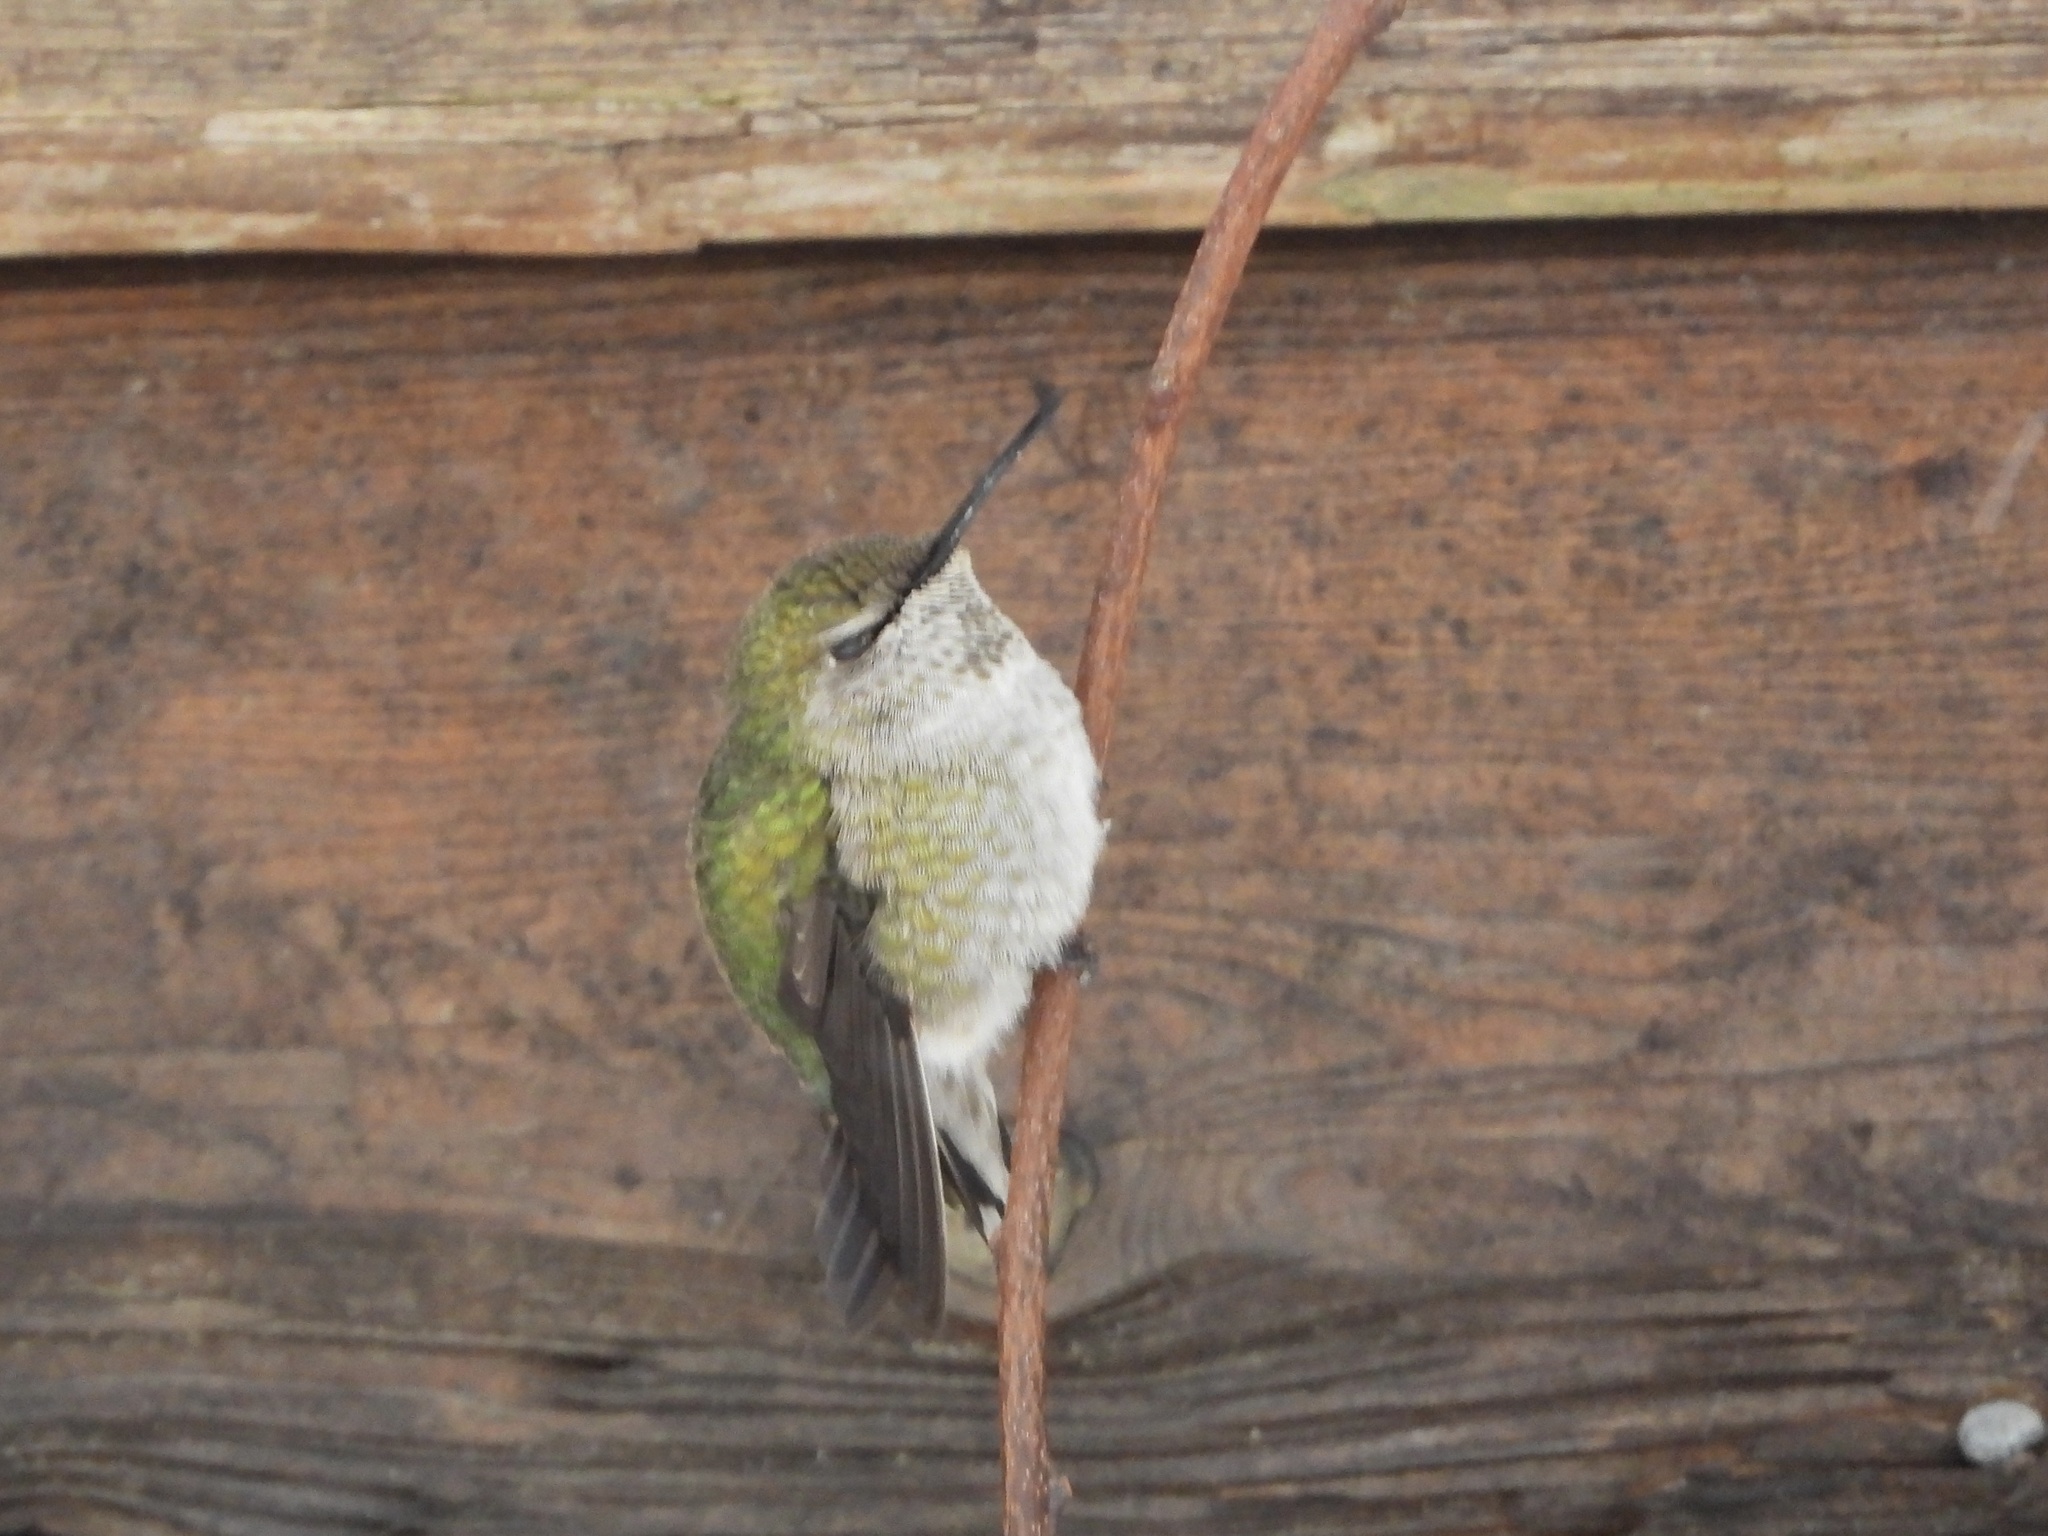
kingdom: Animalia
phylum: Chordata
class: Aves
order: Apodiformes
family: Trochilidae
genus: Calypte
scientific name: Calypte anna
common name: Anna's hummingbird
